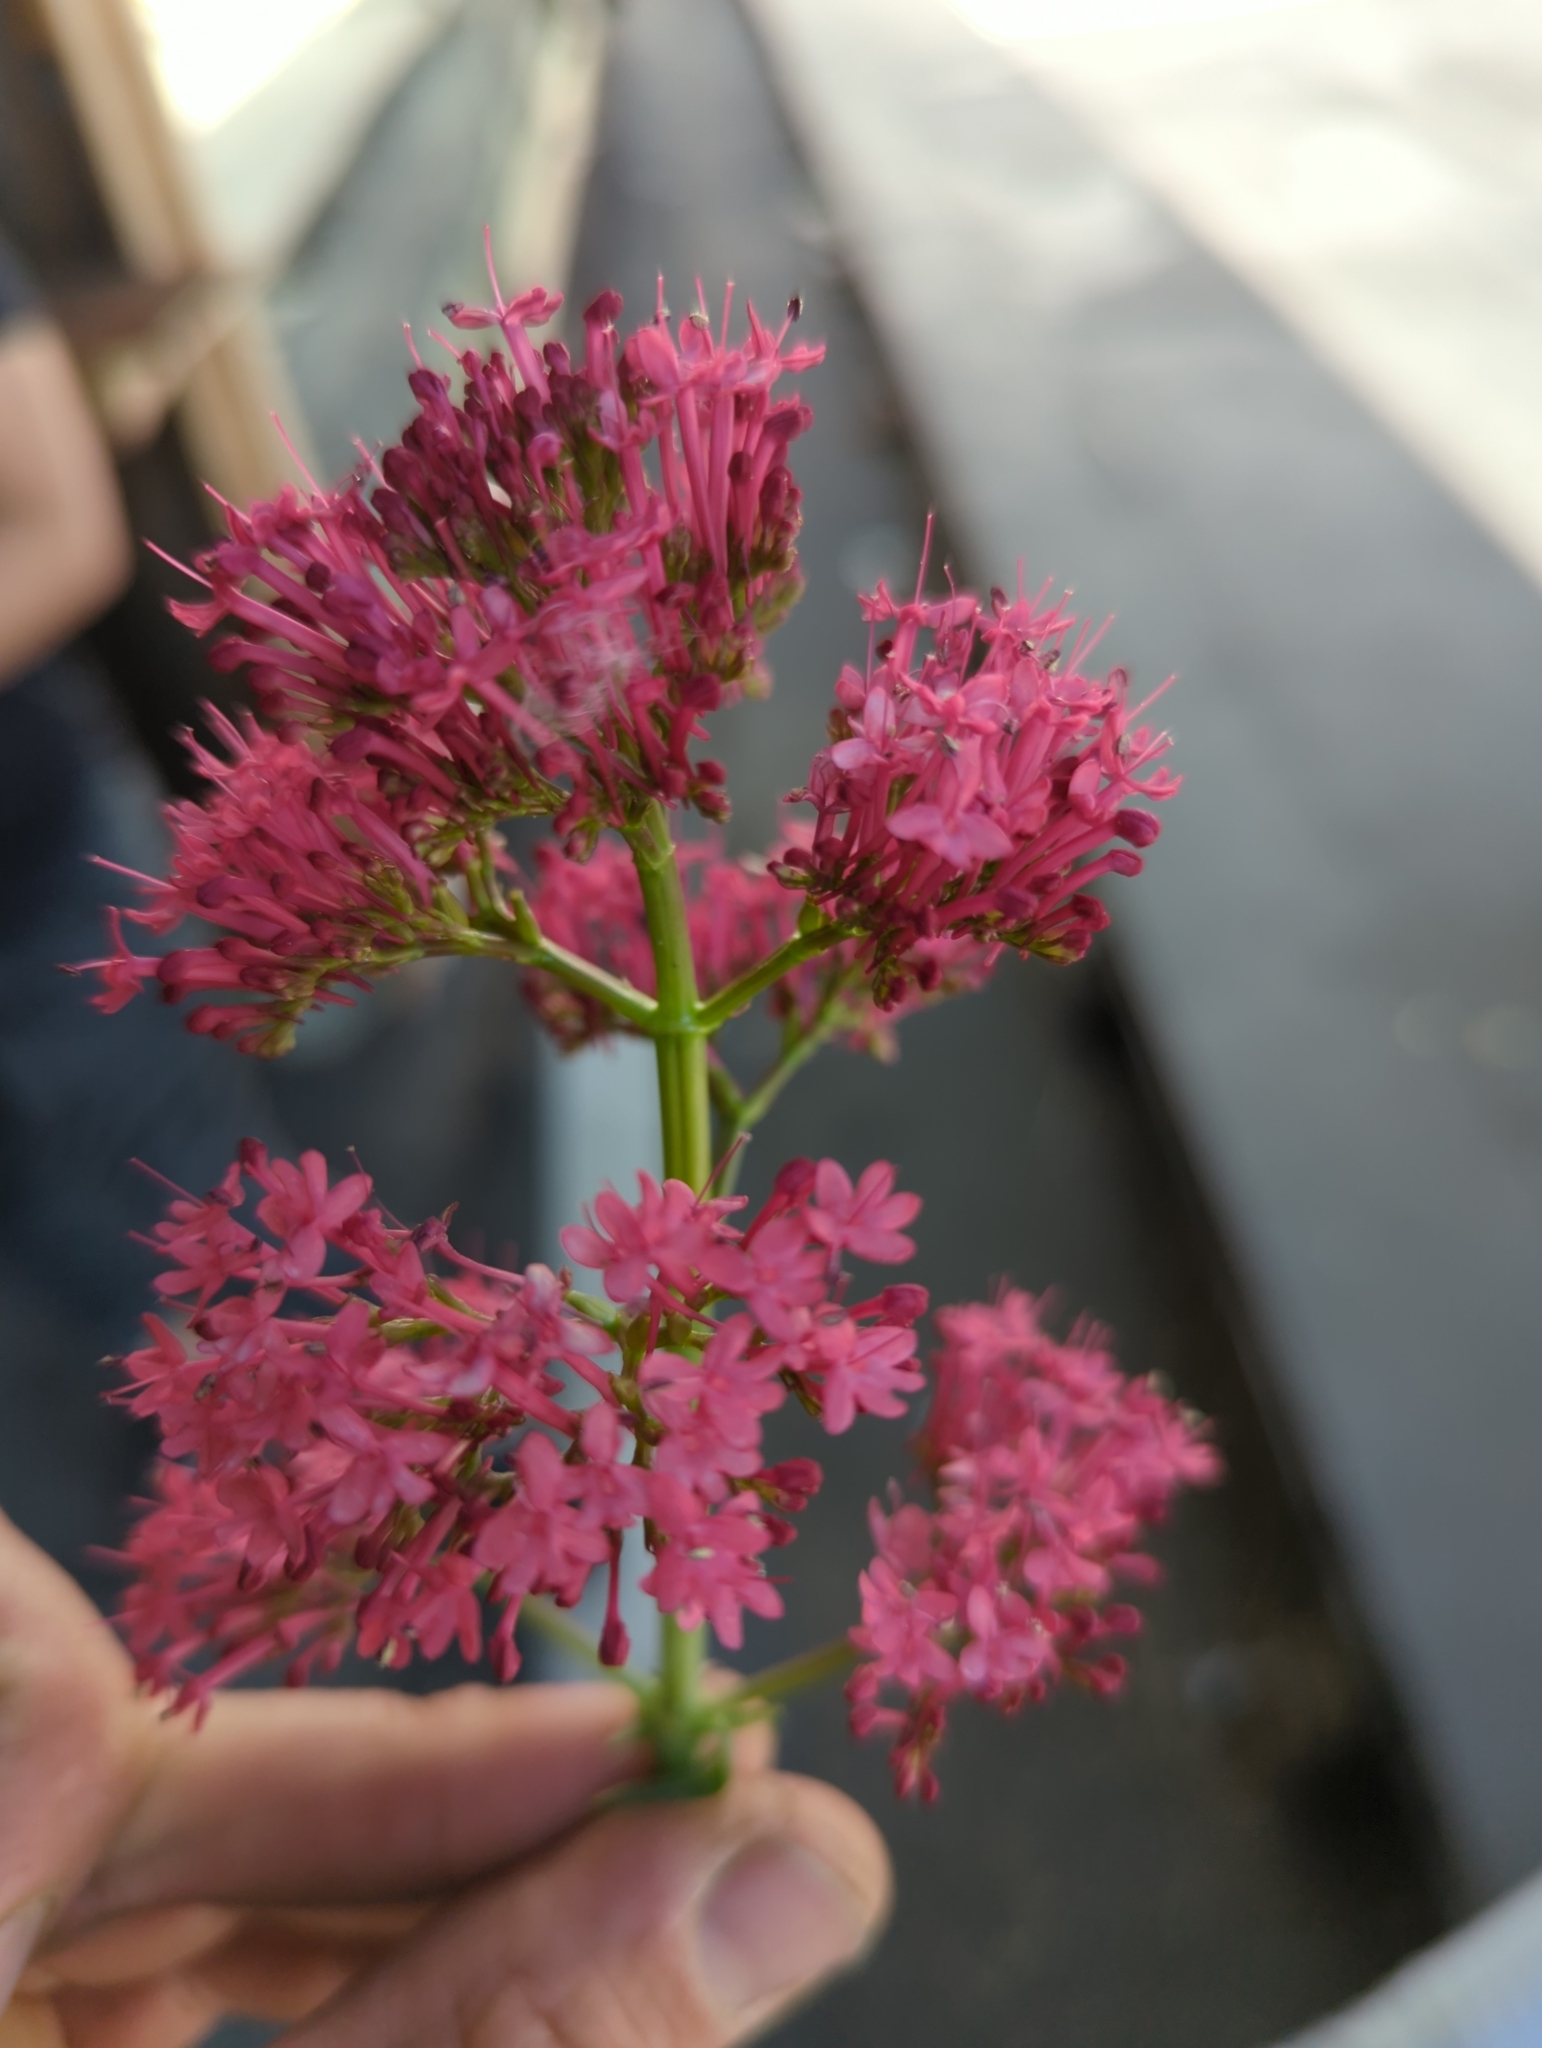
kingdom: Plantae
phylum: Tracheophyta
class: Magnoliopsida
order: Dipsacales
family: Caprifoliaceae
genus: Centranthus
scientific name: Centranthus ruber
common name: Red valerian
